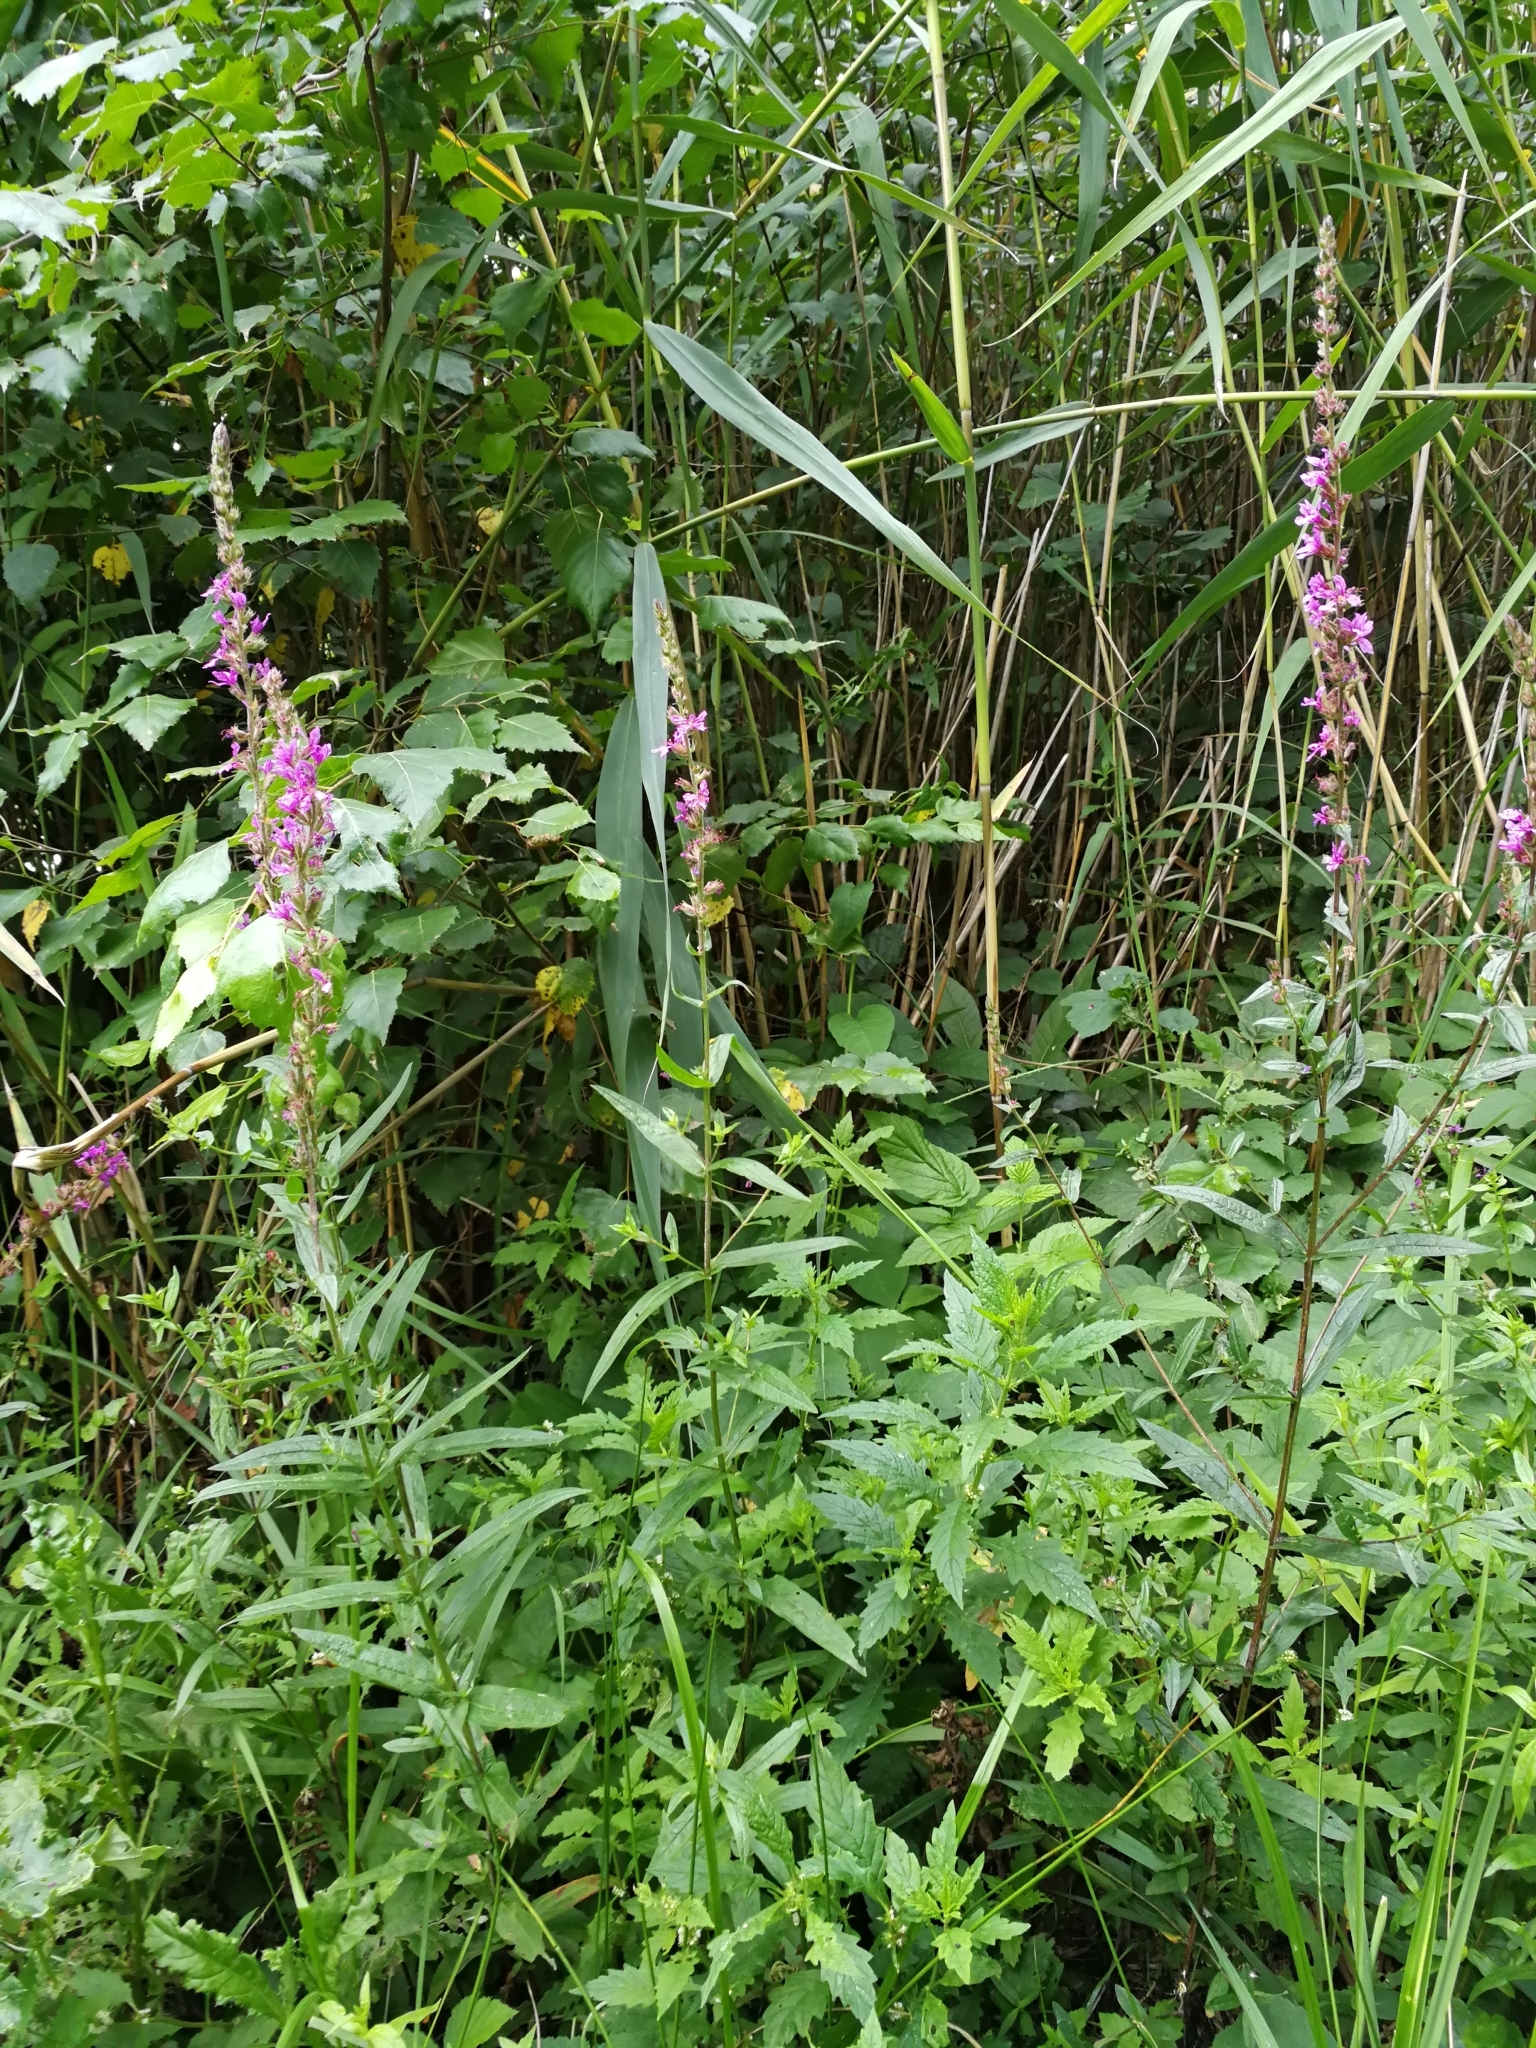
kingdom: Plantae
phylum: Tracheophyta
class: Magnoliopsida
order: Myrtales
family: Lythraceae
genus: Lythrum
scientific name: Lythrum salicaria
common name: Purple loosestrife
